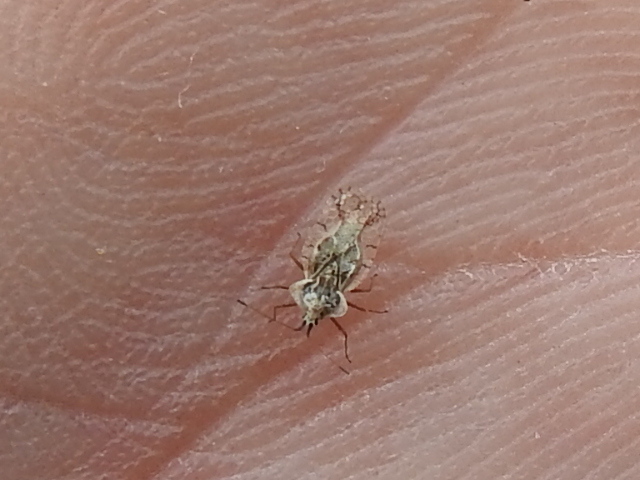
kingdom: Animalia
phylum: Arthropoda
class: Insecta
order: Hemiptera
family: Tingidae
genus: Gargaphia
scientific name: Gargaphia
